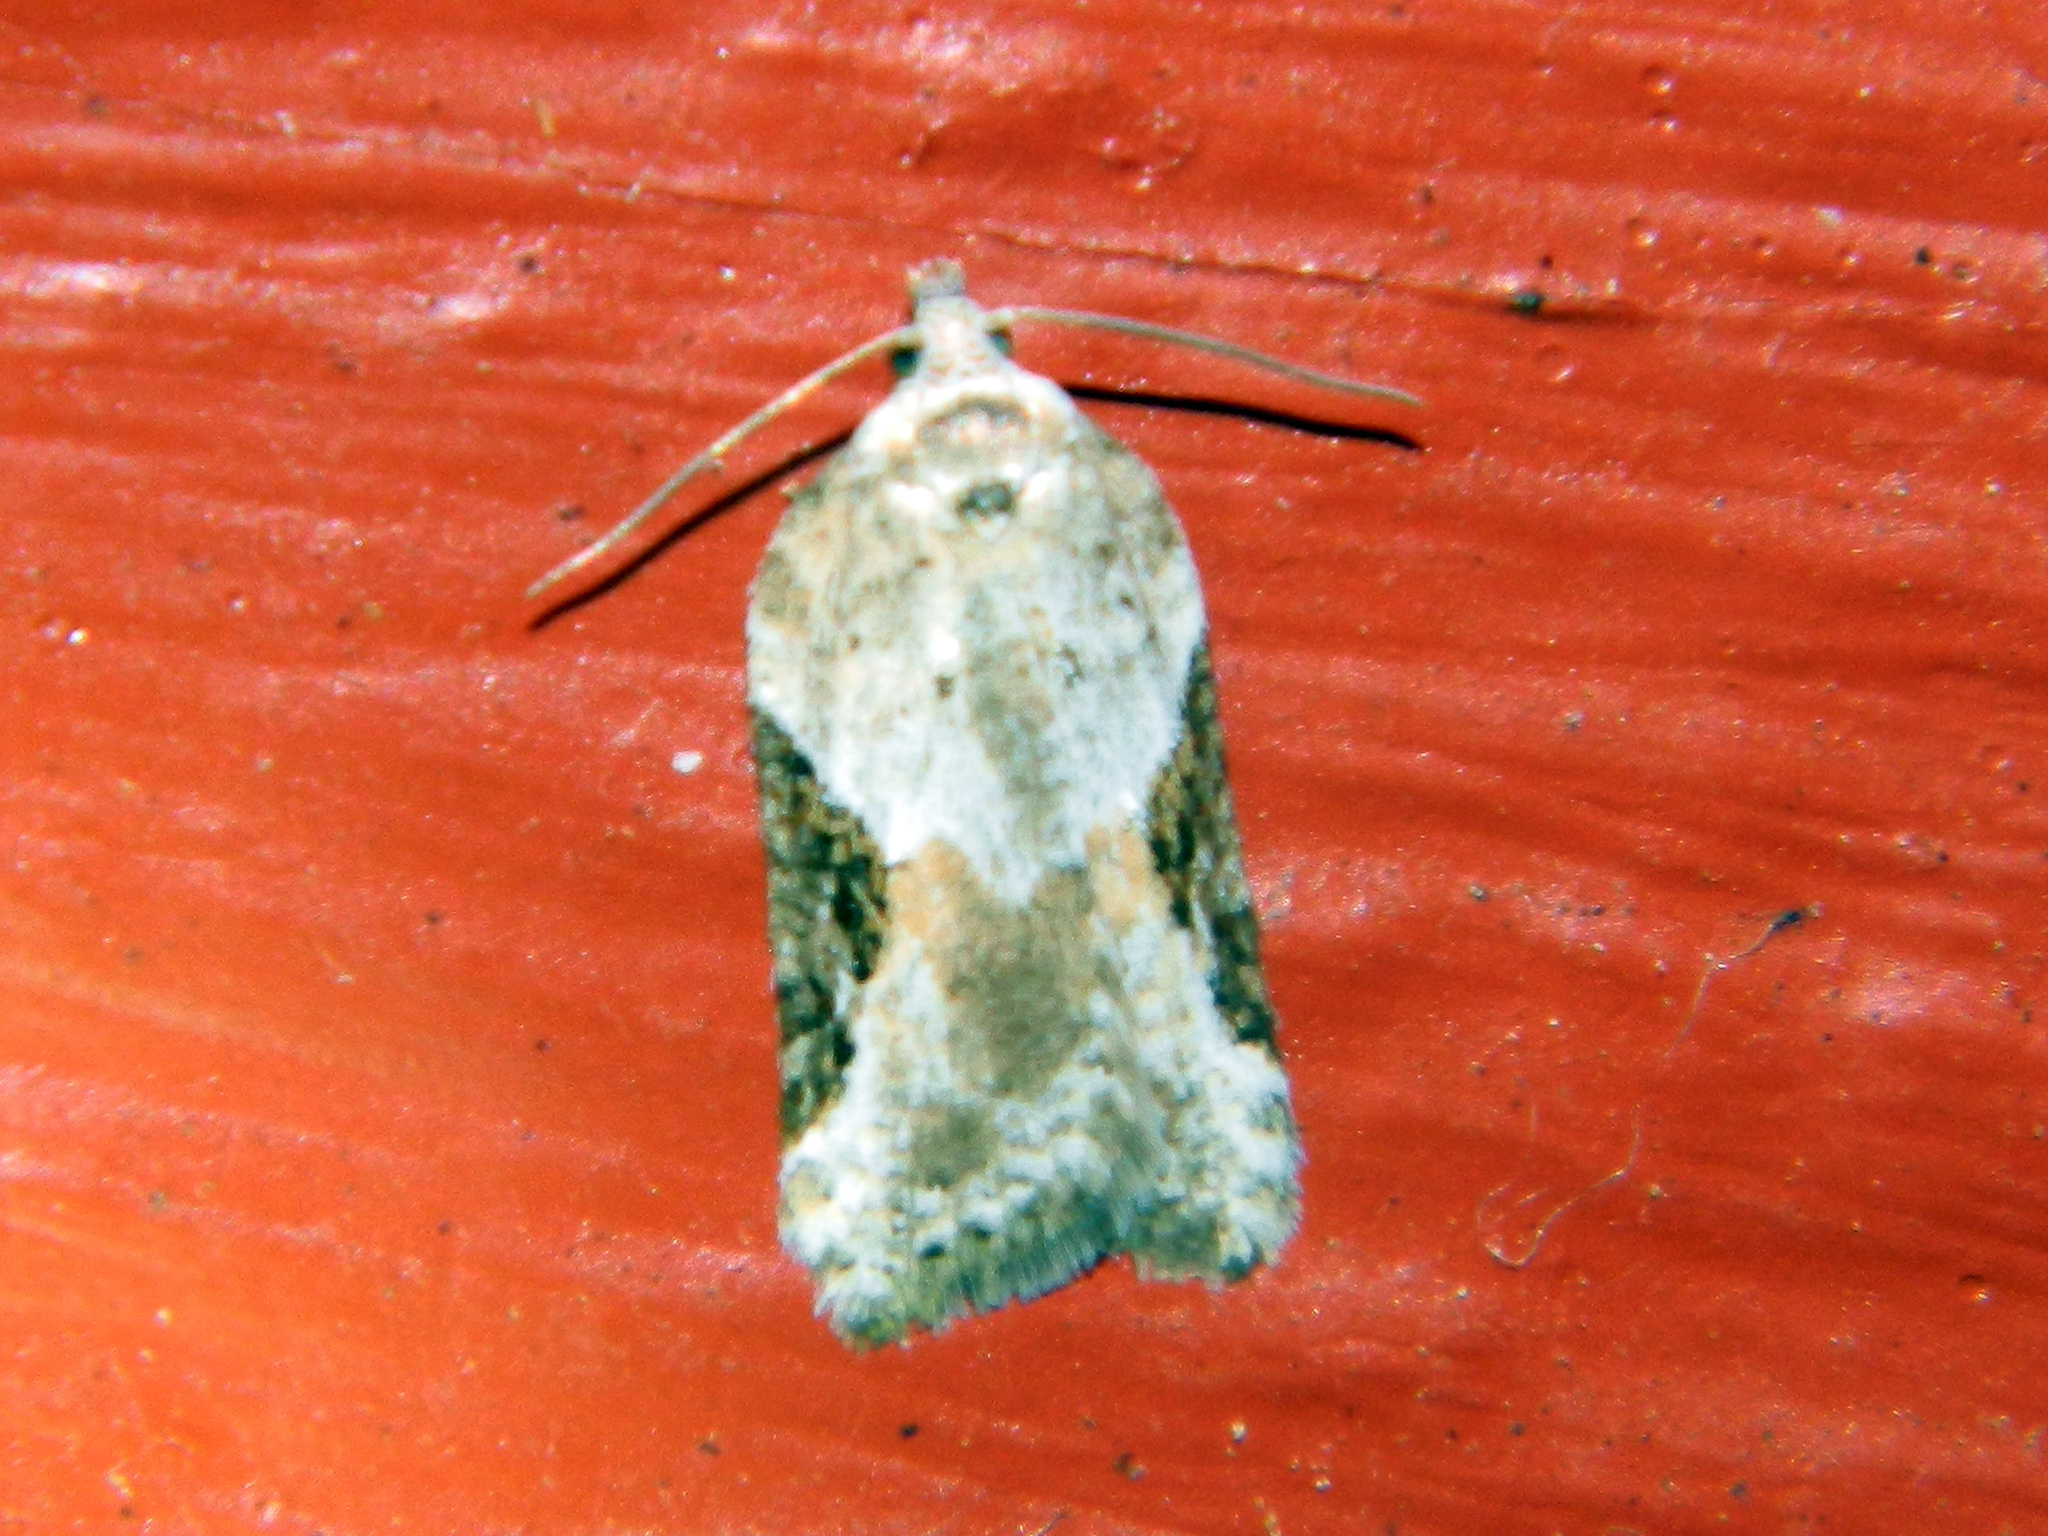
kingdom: Animalia
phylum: Arthropoda
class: Insecta
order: Lepidoptera
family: Tortricidae
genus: Acleris
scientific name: Acleris forbesana
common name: Forbes' acleris moth
